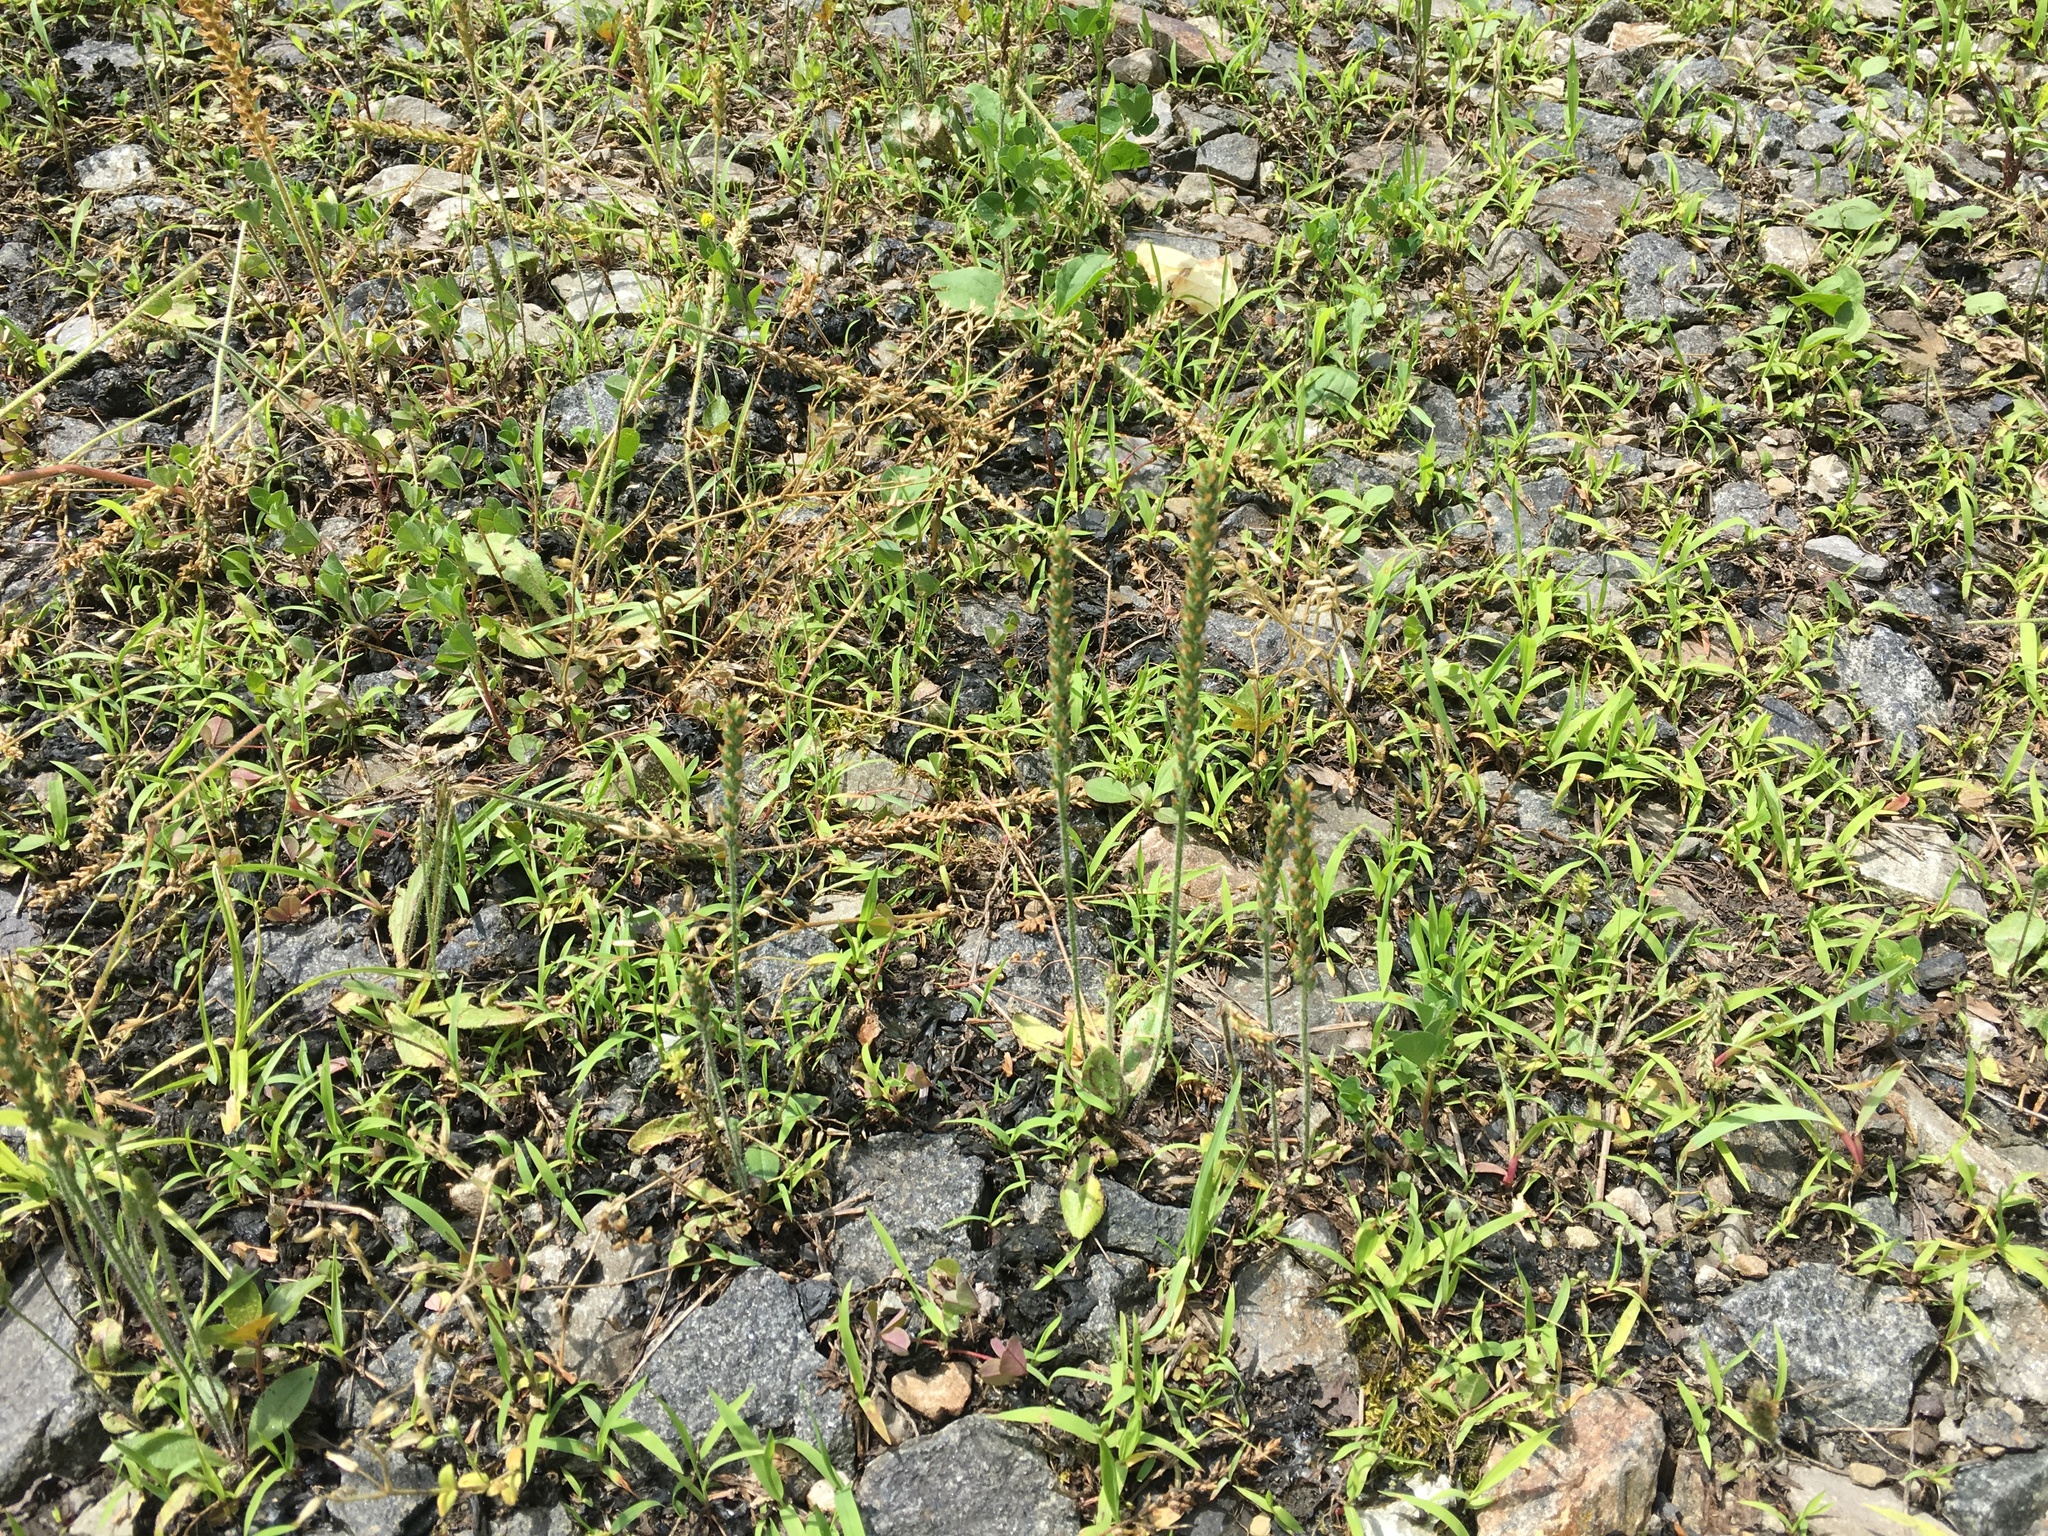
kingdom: Plantae
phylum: Tracheophyta
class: Magnoliopsida
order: Lamiales
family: Plantaginaceae
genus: Plantago
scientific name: Plantago virginica
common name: Hoary plantain
